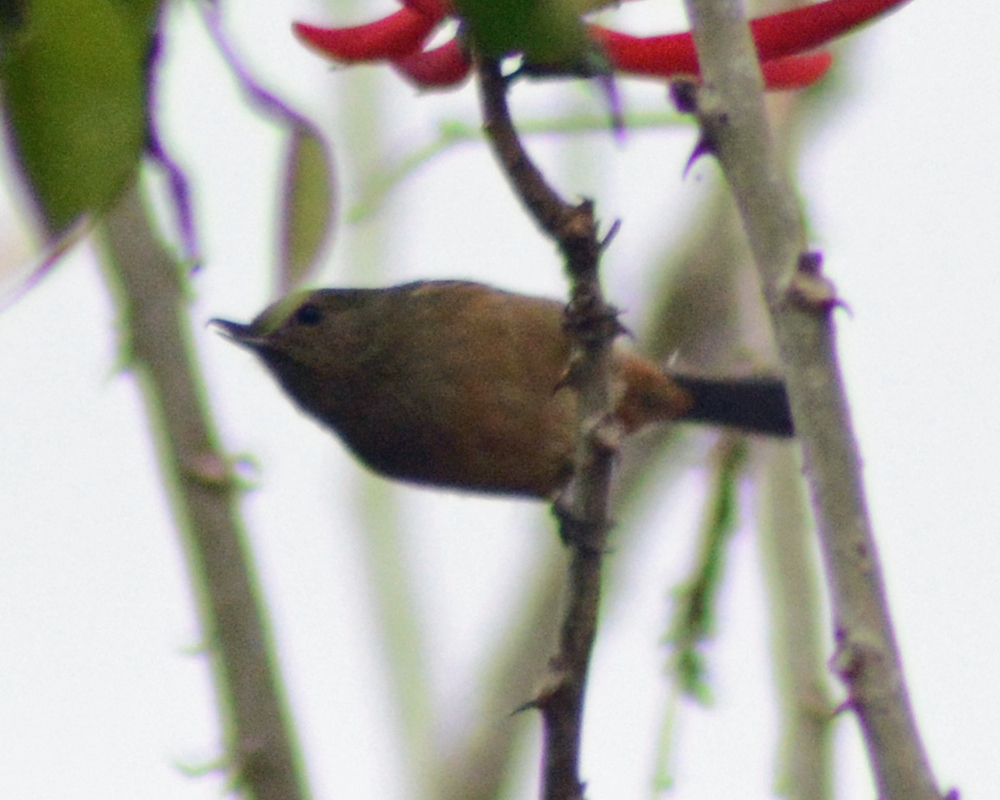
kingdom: Animalia
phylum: Chordata
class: Aves
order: Passeriformes
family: Thraupidae
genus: Diglossa
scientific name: Diglossa baritula
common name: Cinnamon-bellied flowerpiercer
